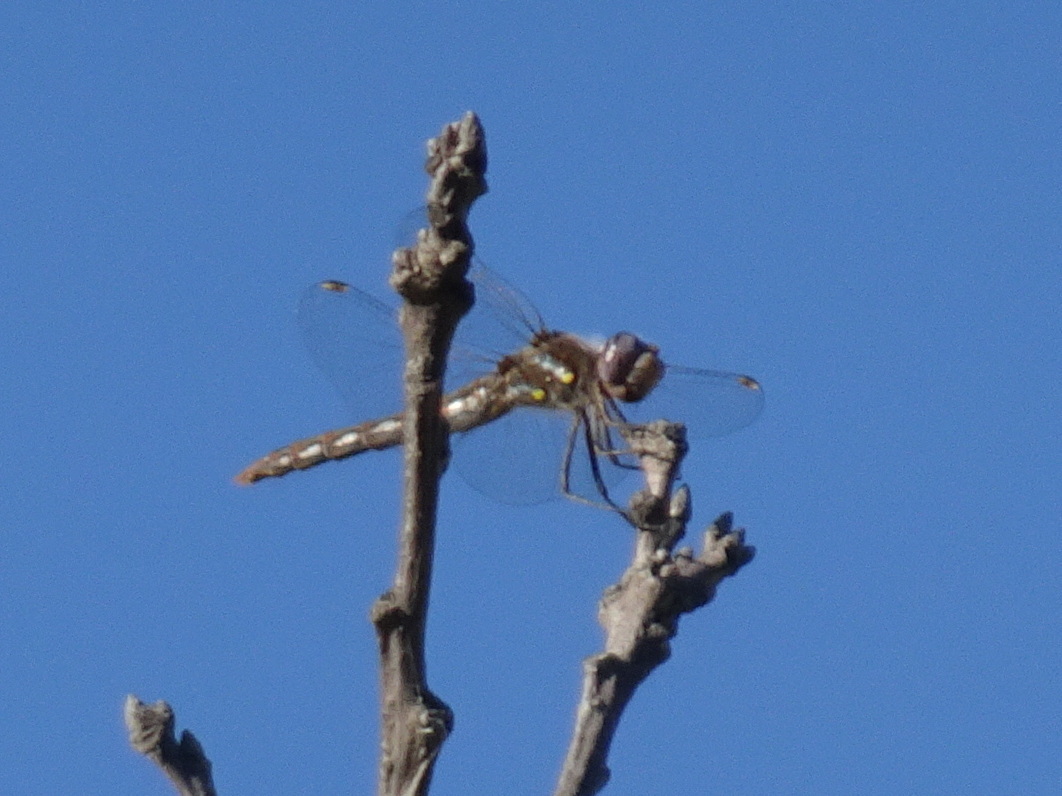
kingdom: Animalia
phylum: Arthropoda
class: Insecta
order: Odonata
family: Libellulidae
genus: Sympetrum
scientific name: Sympetrum corruptum
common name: Variegated meadowhawk
